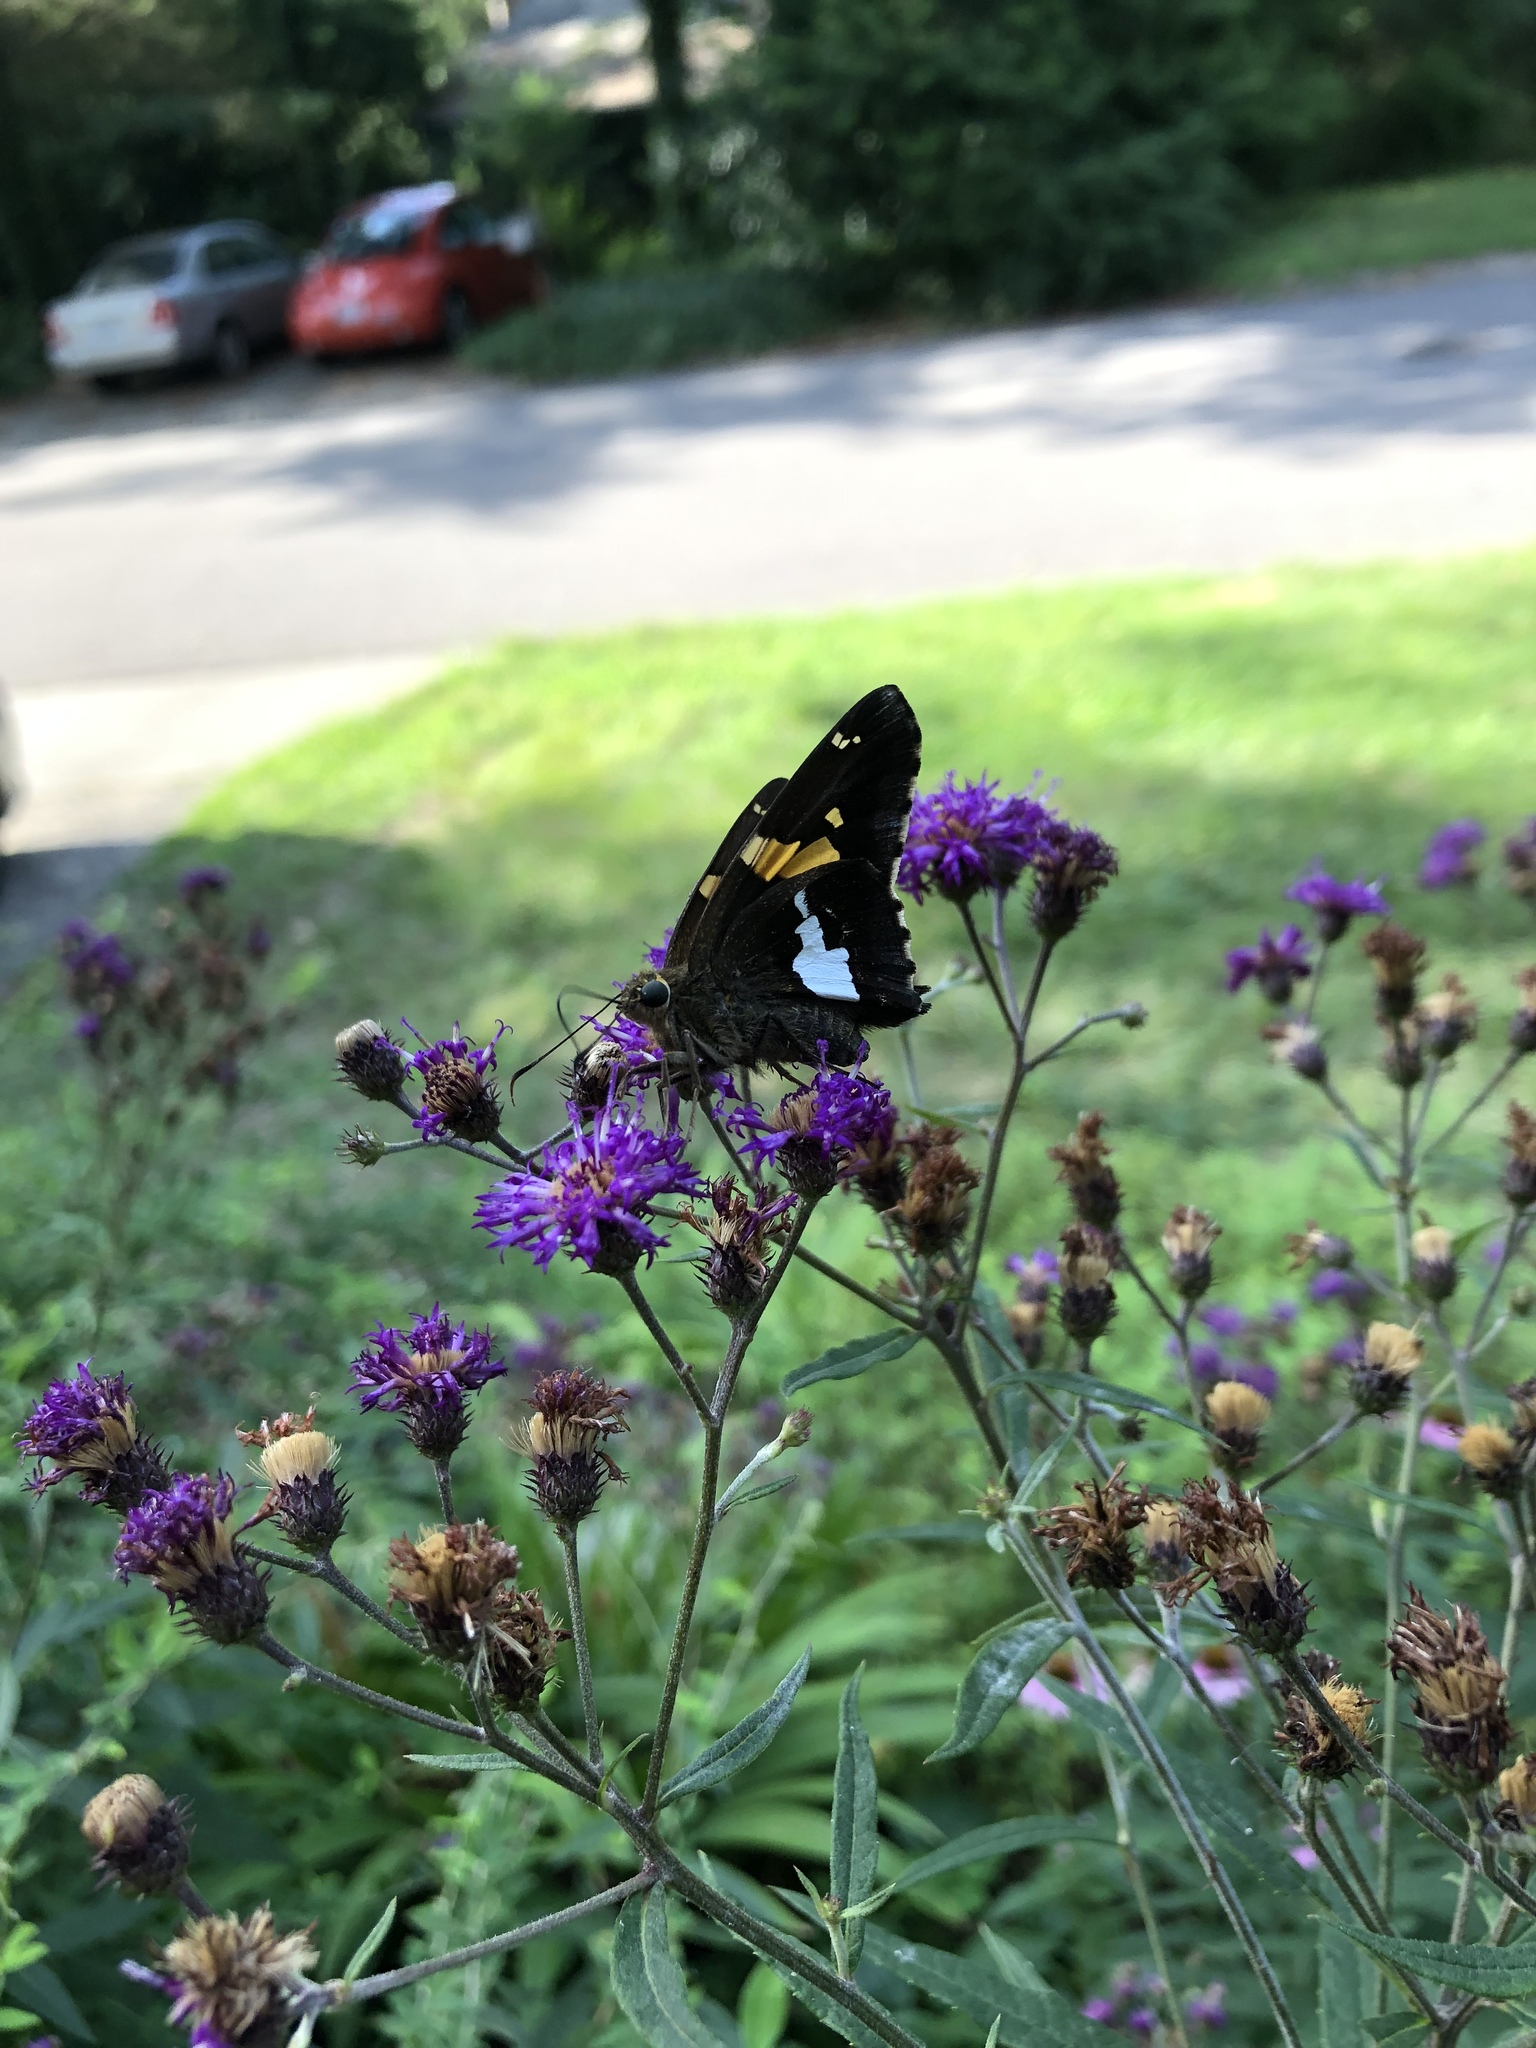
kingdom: Animalia
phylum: Arthropoda
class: Insecta
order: Lepidoptera
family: Hesperiidae
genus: Epargyreus
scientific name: Epargyreus clarus
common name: Silver-spotted skipper
